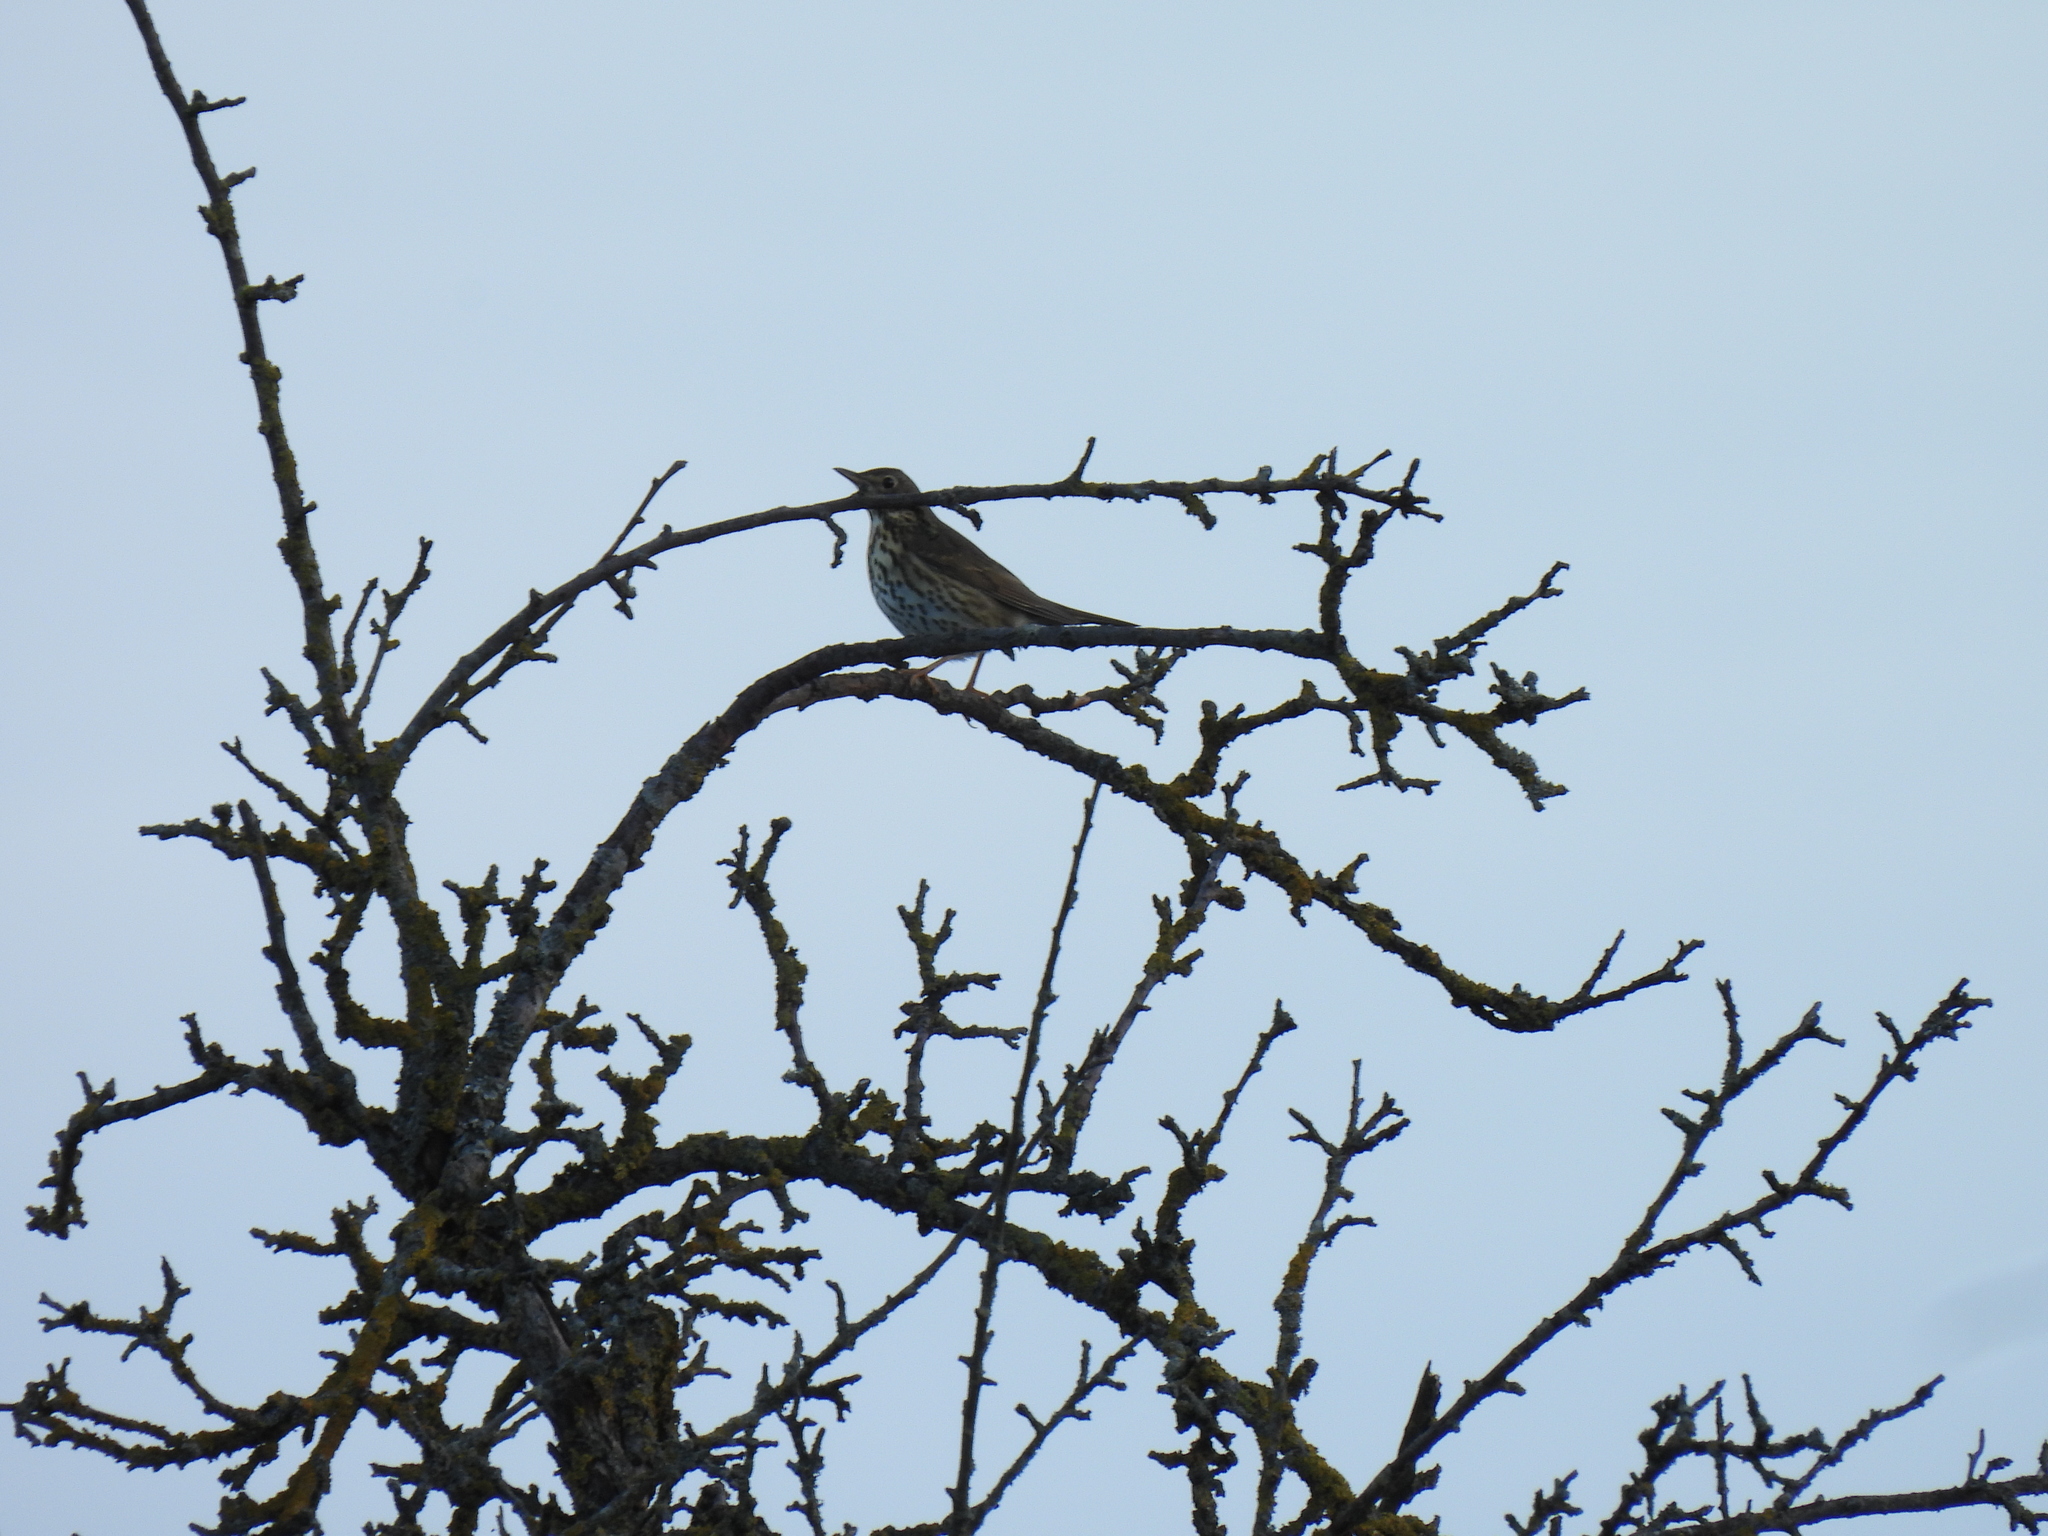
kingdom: Animalia
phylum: Chordata
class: Aves
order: Passeriformes
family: Turdidae
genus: Turdus
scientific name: Turdus philomelos
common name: Song thrush
